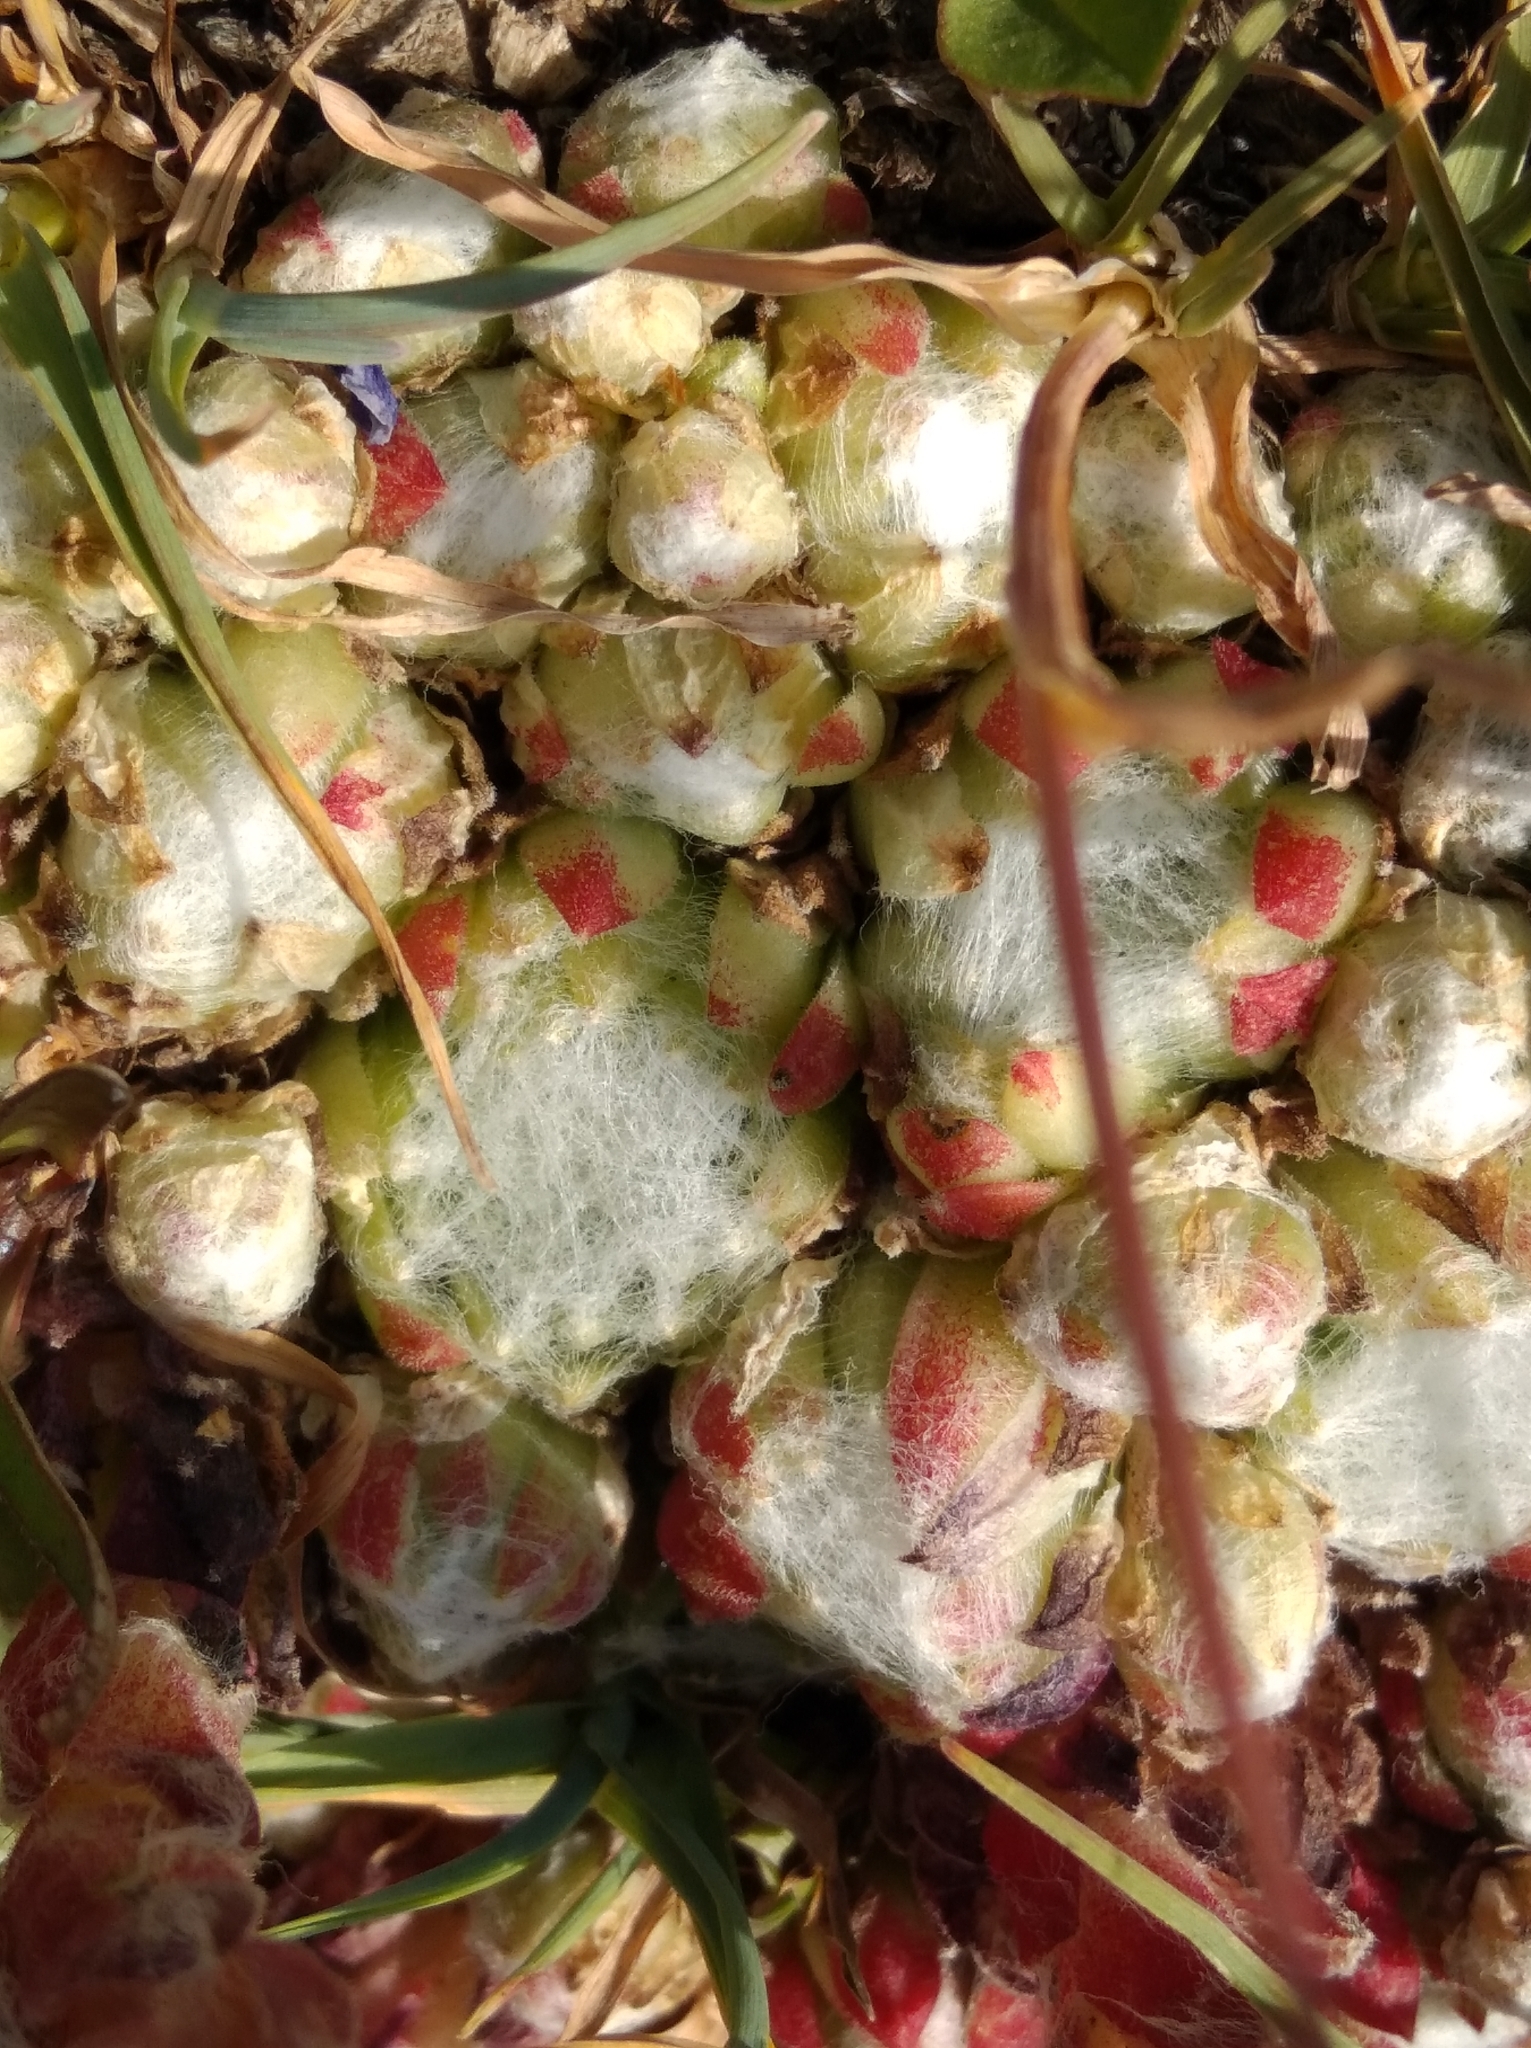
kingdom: Plantae
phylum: Tracheophyta
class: Magnoliopsida
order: Saxifragales
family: Crassulaceae
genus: Sempervivum
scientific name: Sempervivum arachnoideum
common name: Cobweb house-leek
